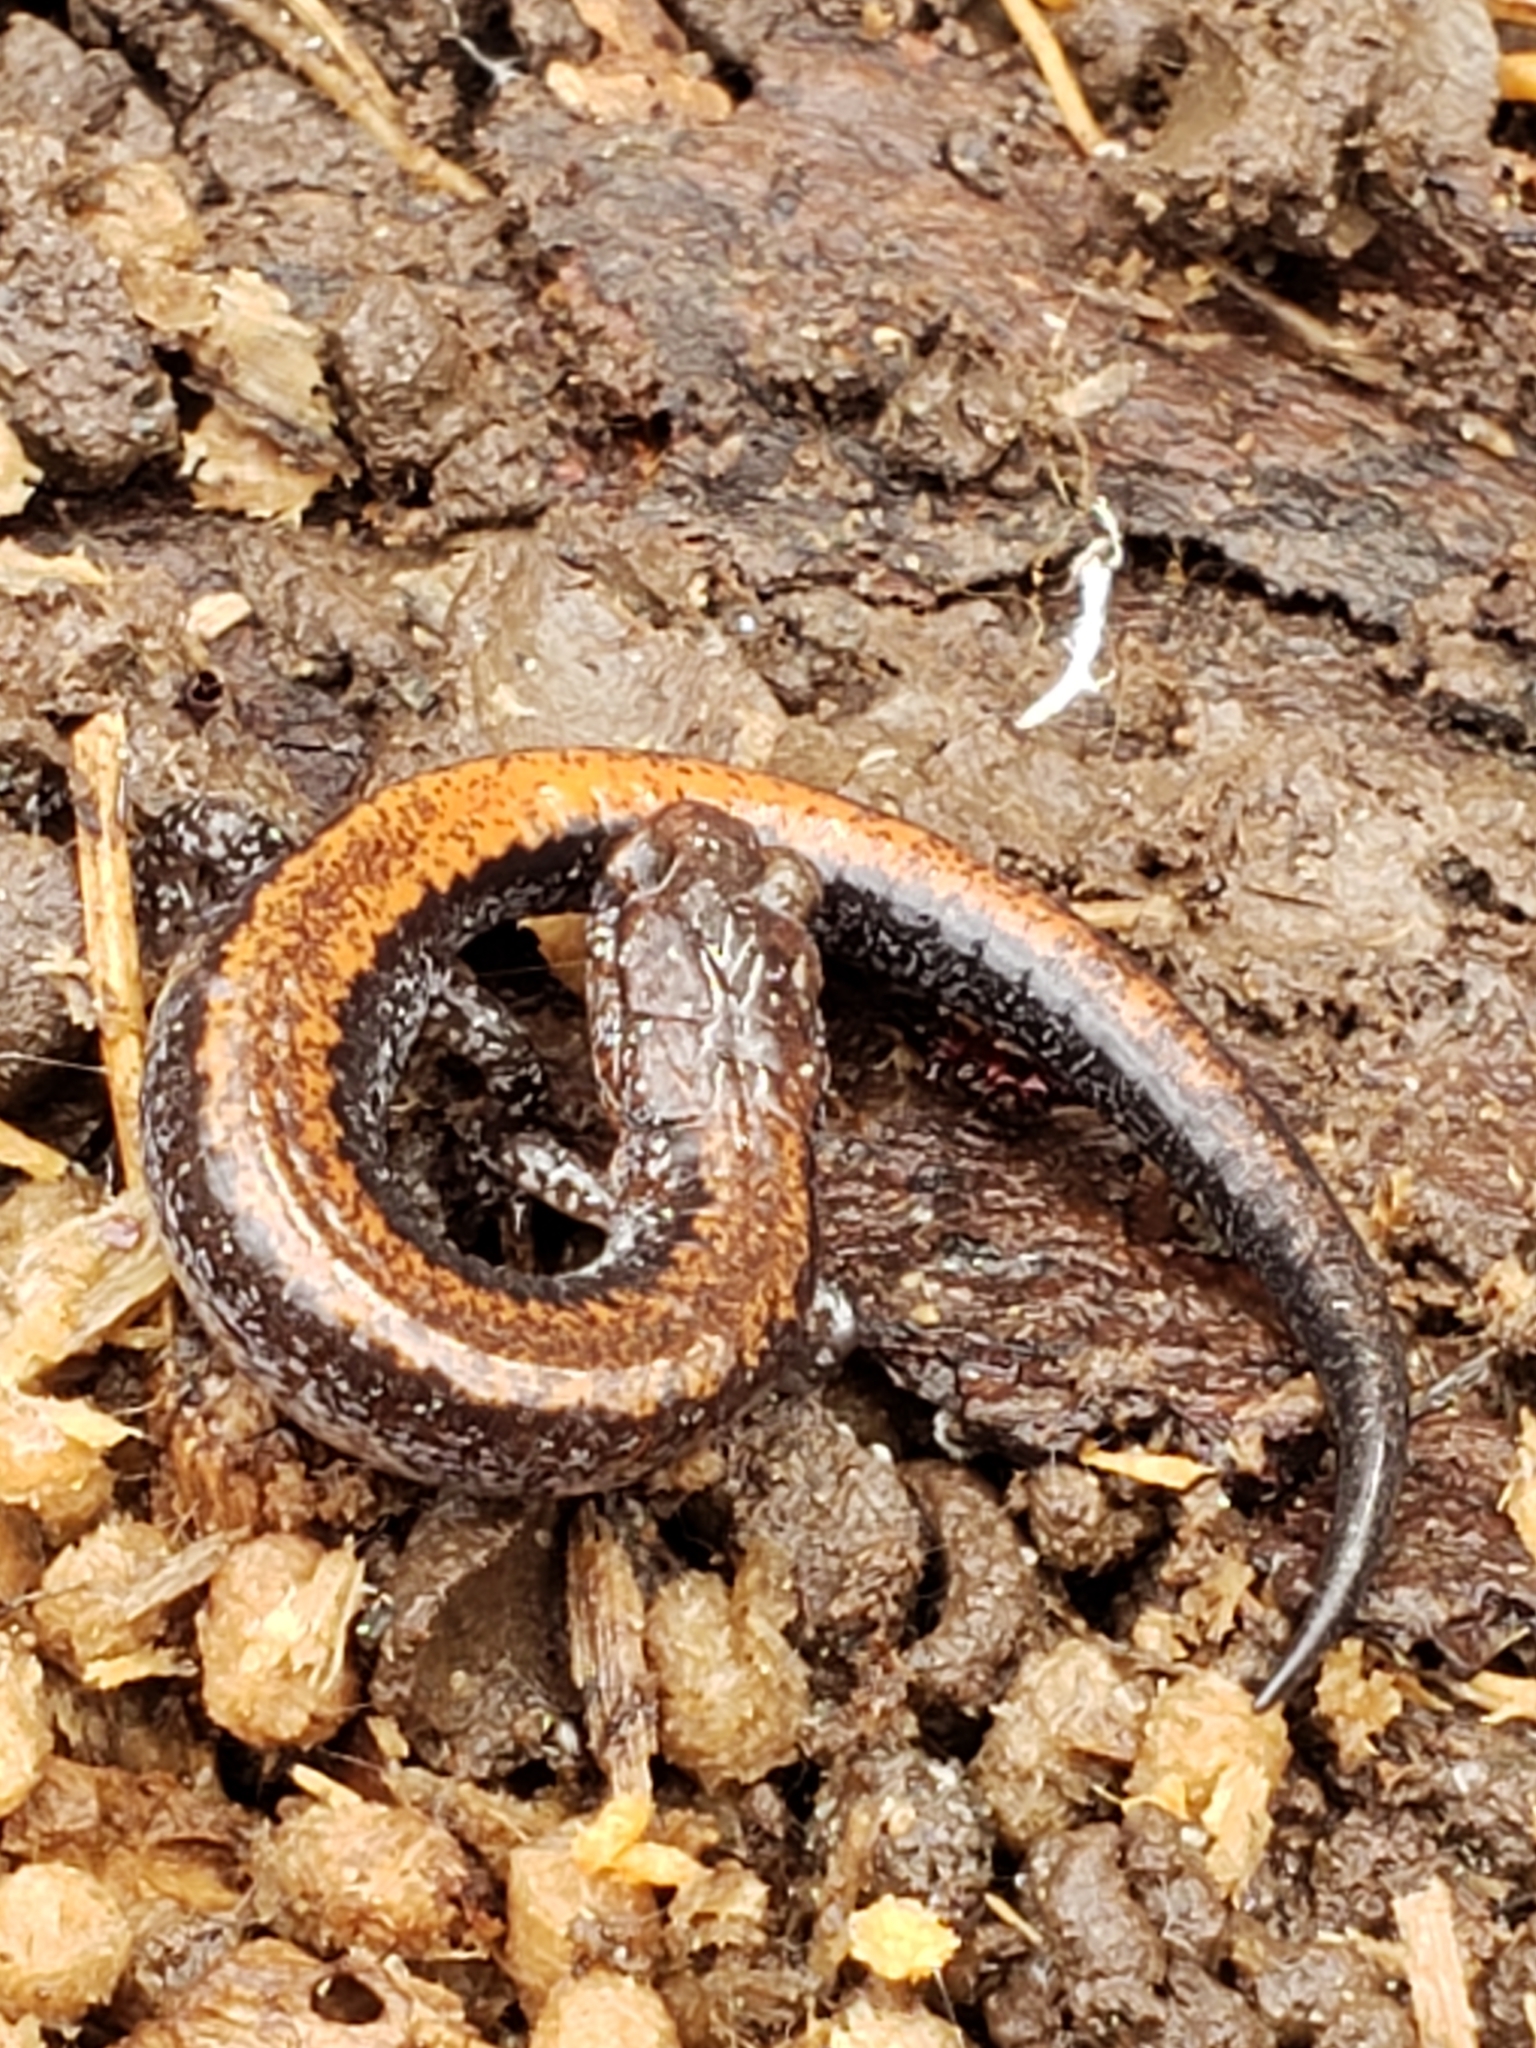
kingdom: Animalia
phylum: Chordata
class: Amphibia
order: Caudata
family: Plethodontidae
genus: Plethodon
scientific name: Plethodon cinereus
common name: Redback salamander
